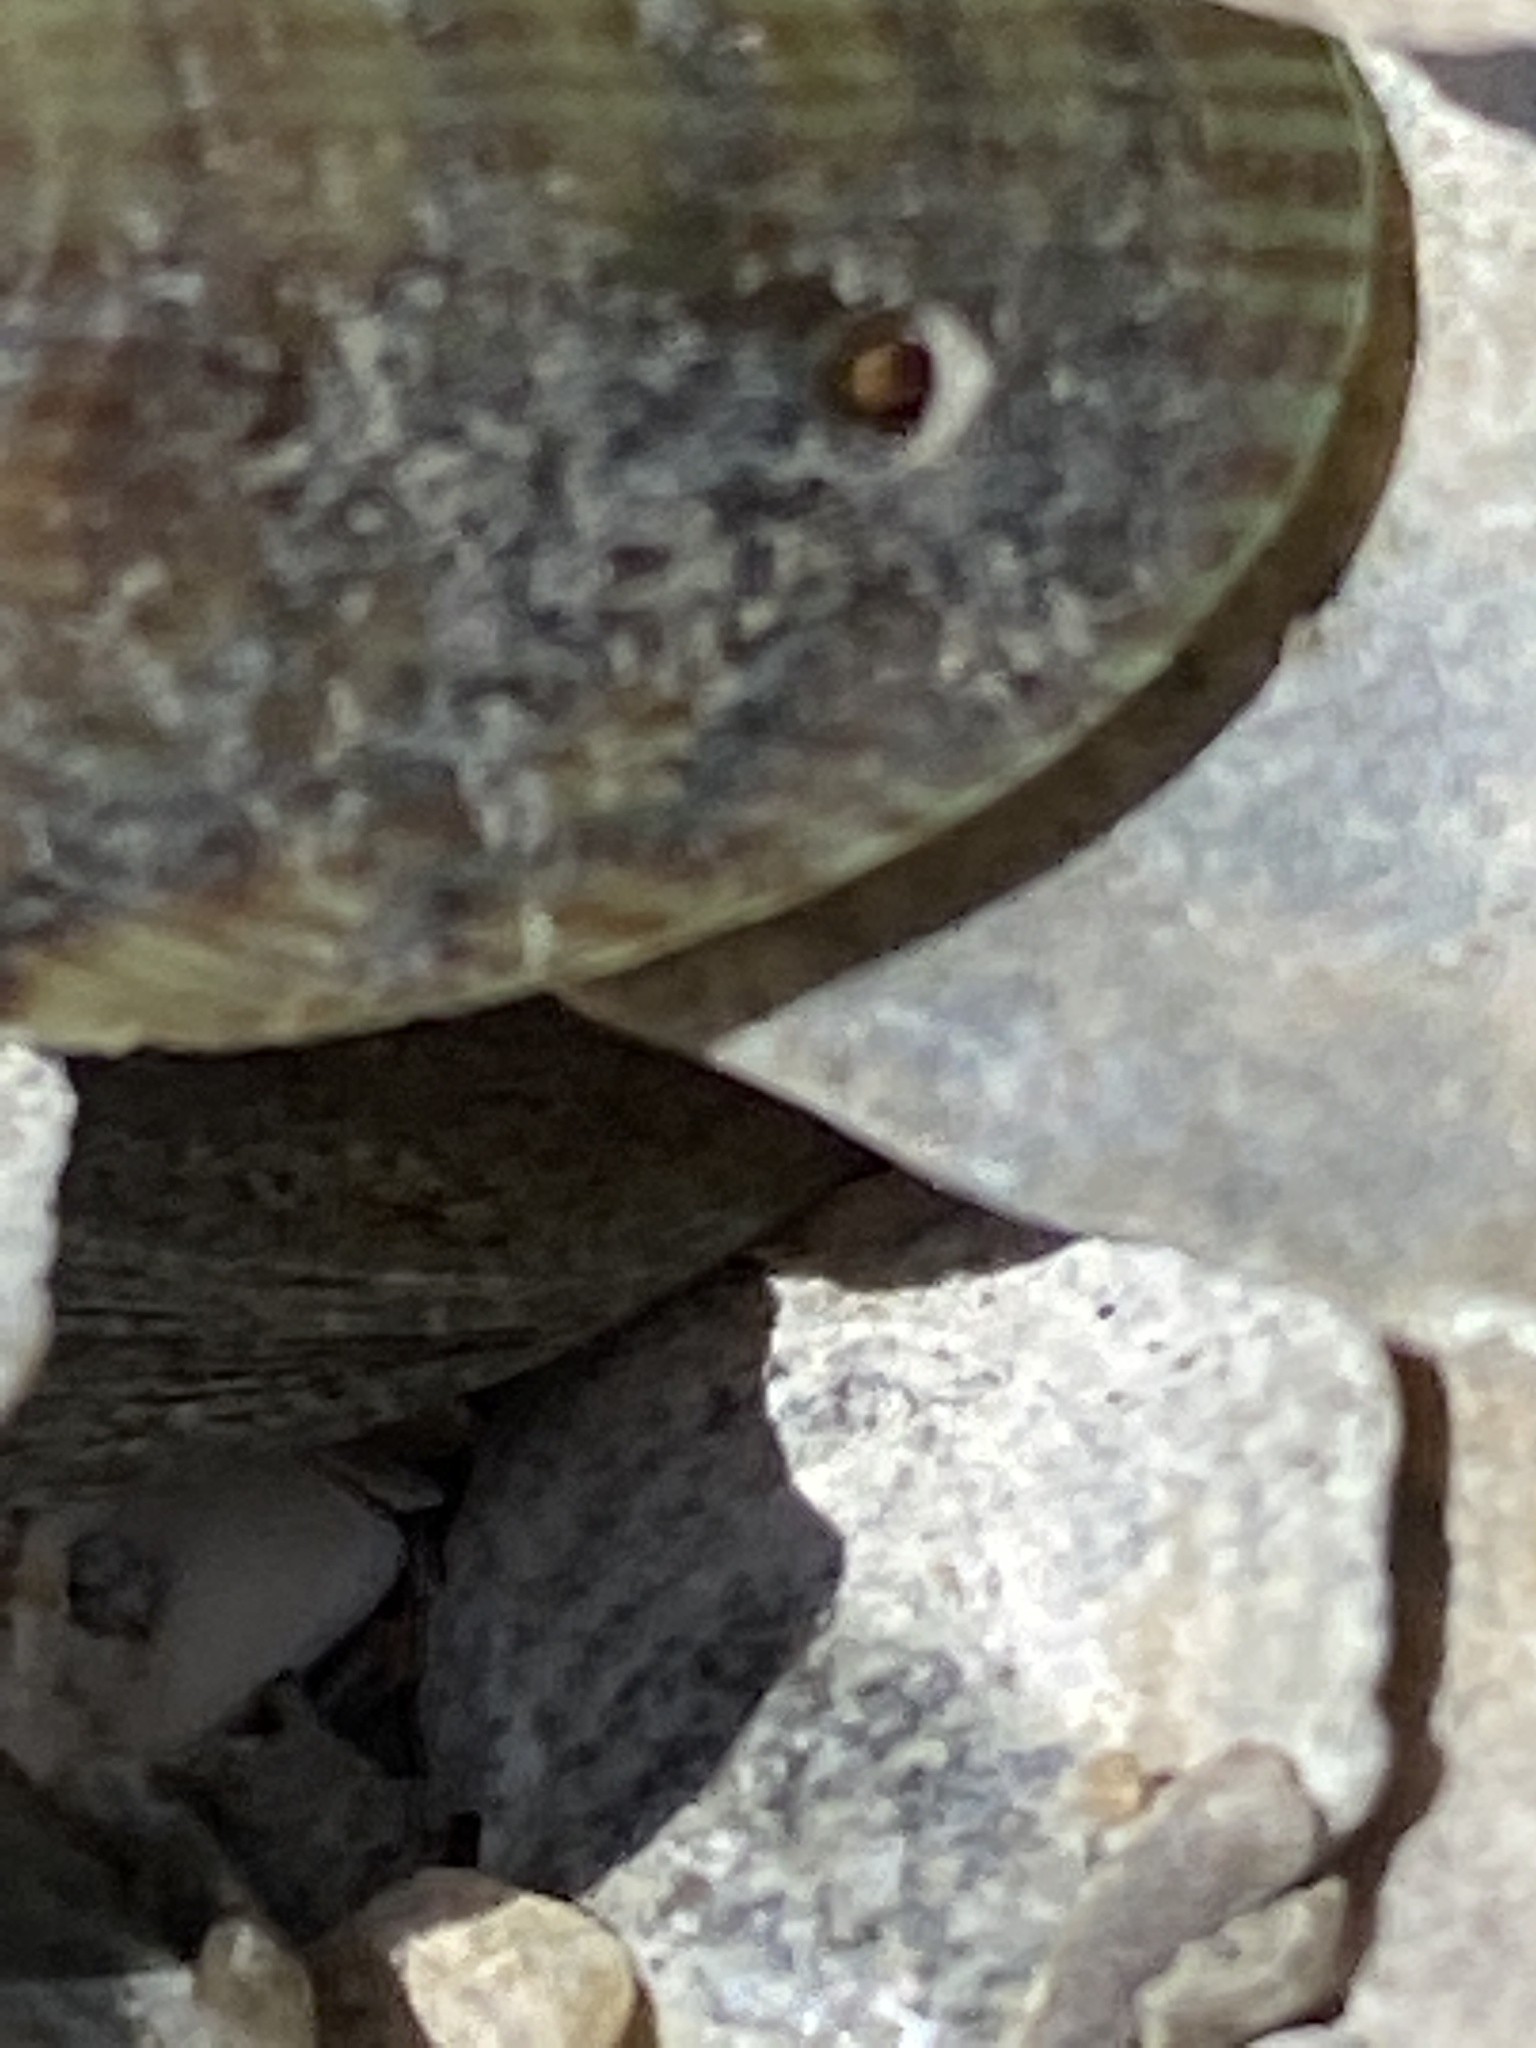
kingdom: Animalia
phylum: Mollusca
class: Gastropoda
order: Neogastropoda
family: Muricidae
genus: Urosalpinx
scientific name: Urosalpinx cinerea
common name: American sting winkle
